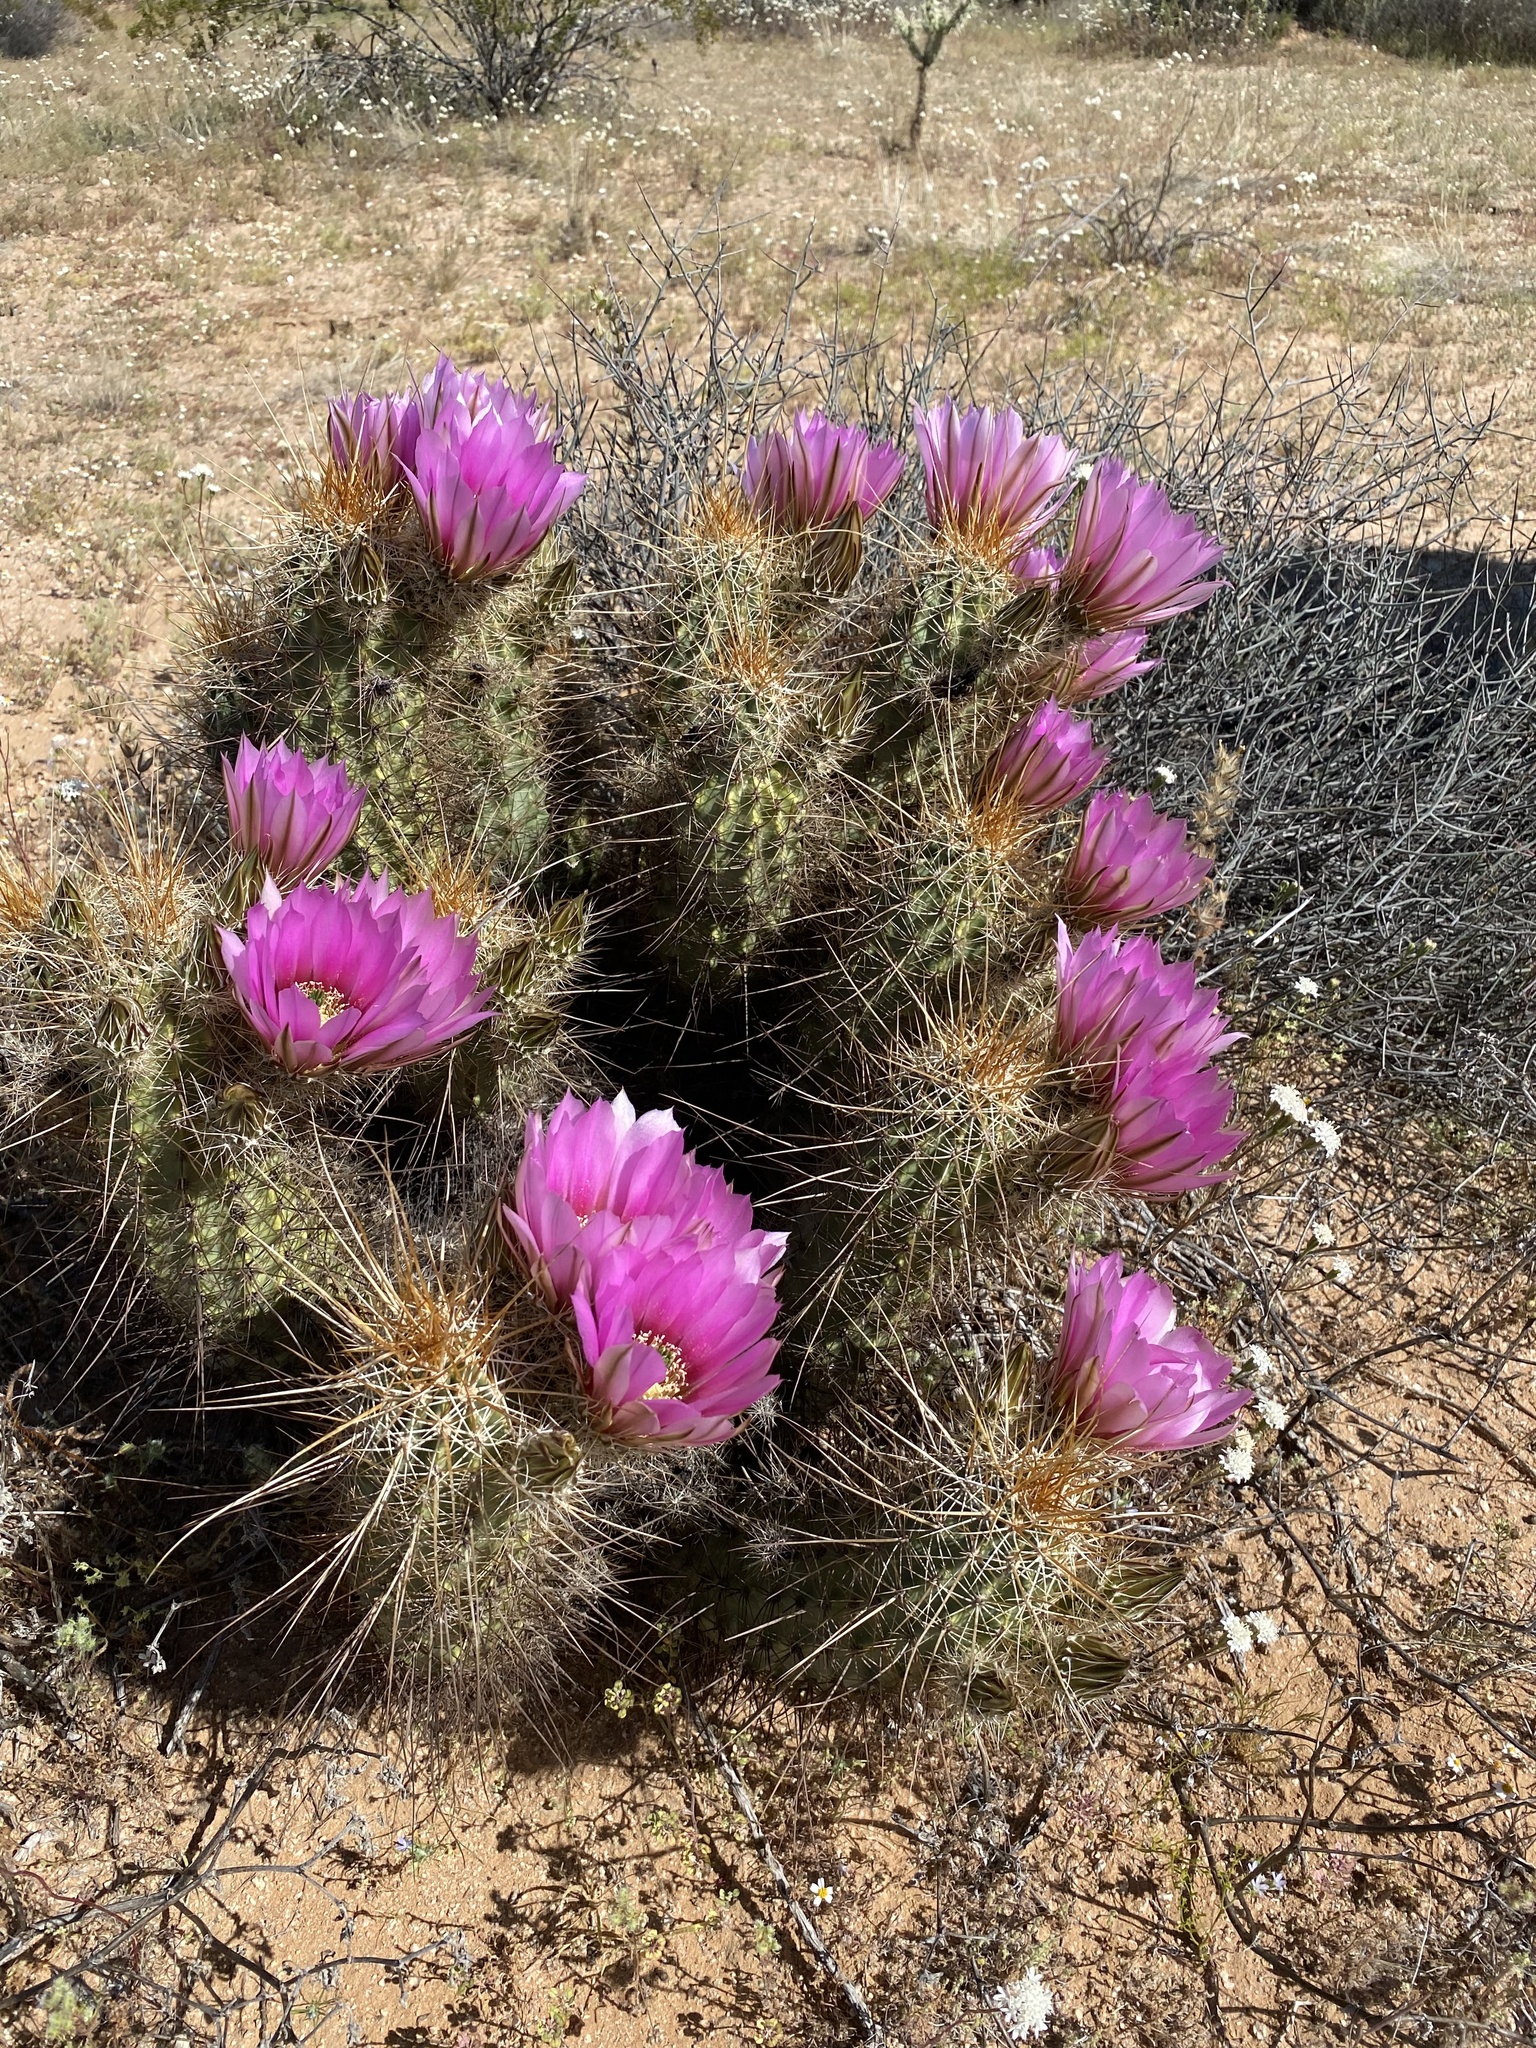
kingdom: Plantae
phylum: Tracheophyta
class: Magnoliopsida
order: Caryophyllales
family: Cactaceae
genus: Echinocereus
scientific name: Echinocereus engelmannii
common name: Engelmann's hedgehog cactus
